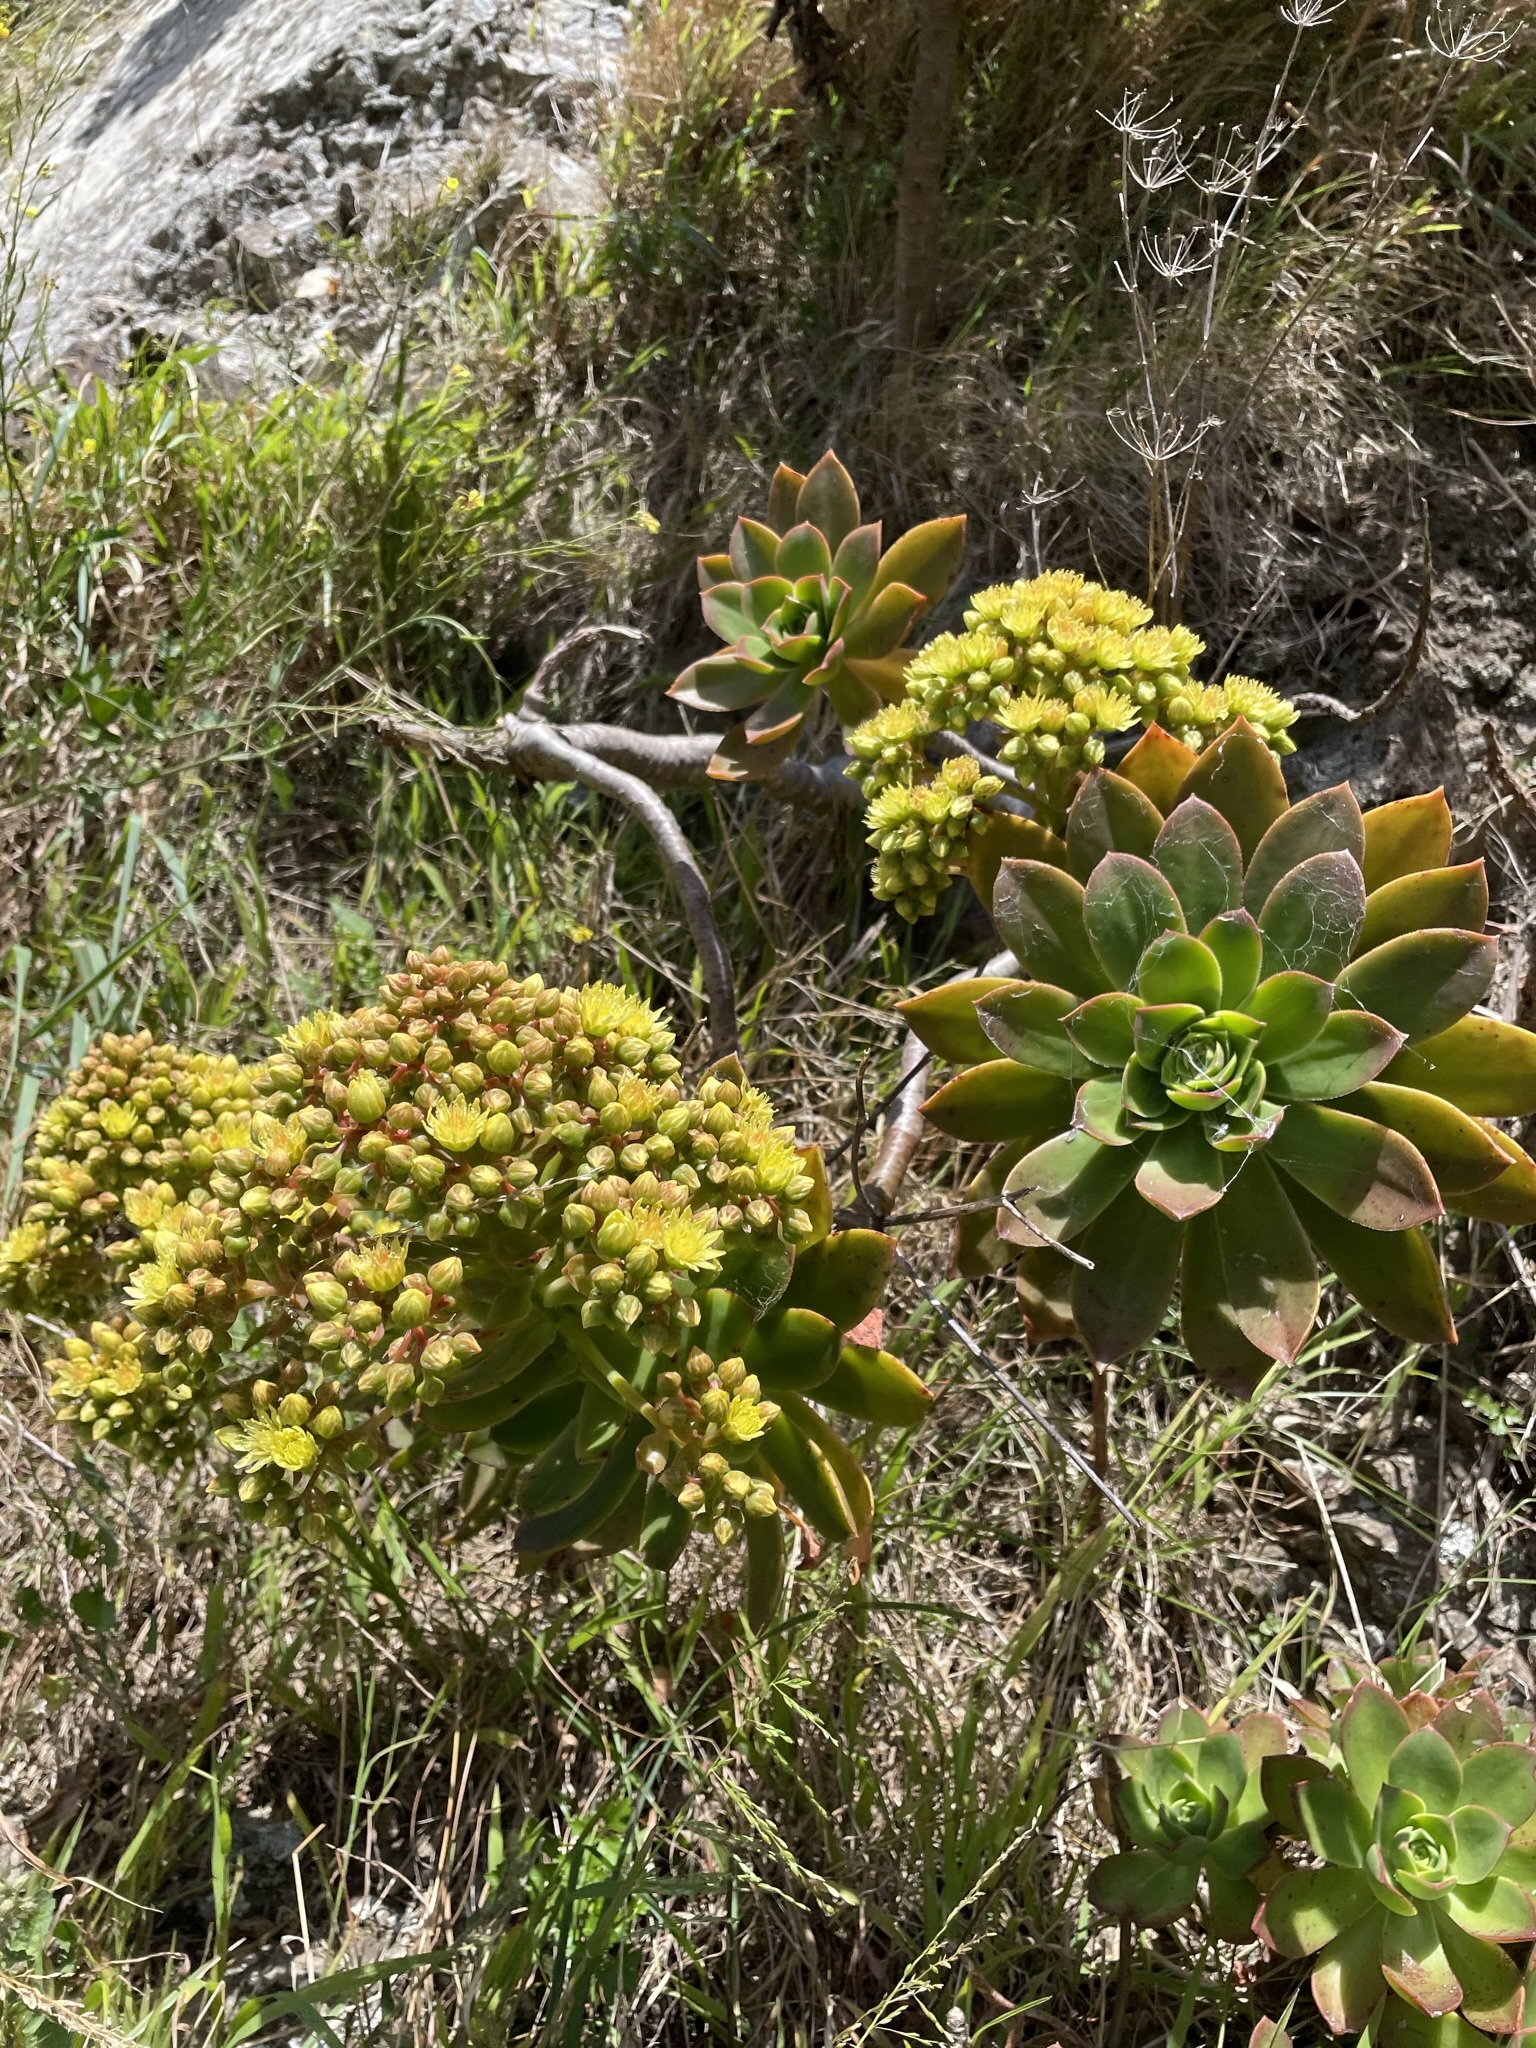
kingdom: Plantae
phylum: Tracheophyta
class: Magnoliopsida
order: Saxifragales
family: Crassulaceae
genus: Aeonium
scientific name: Aeonium arboreum
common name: Tree aeonium
